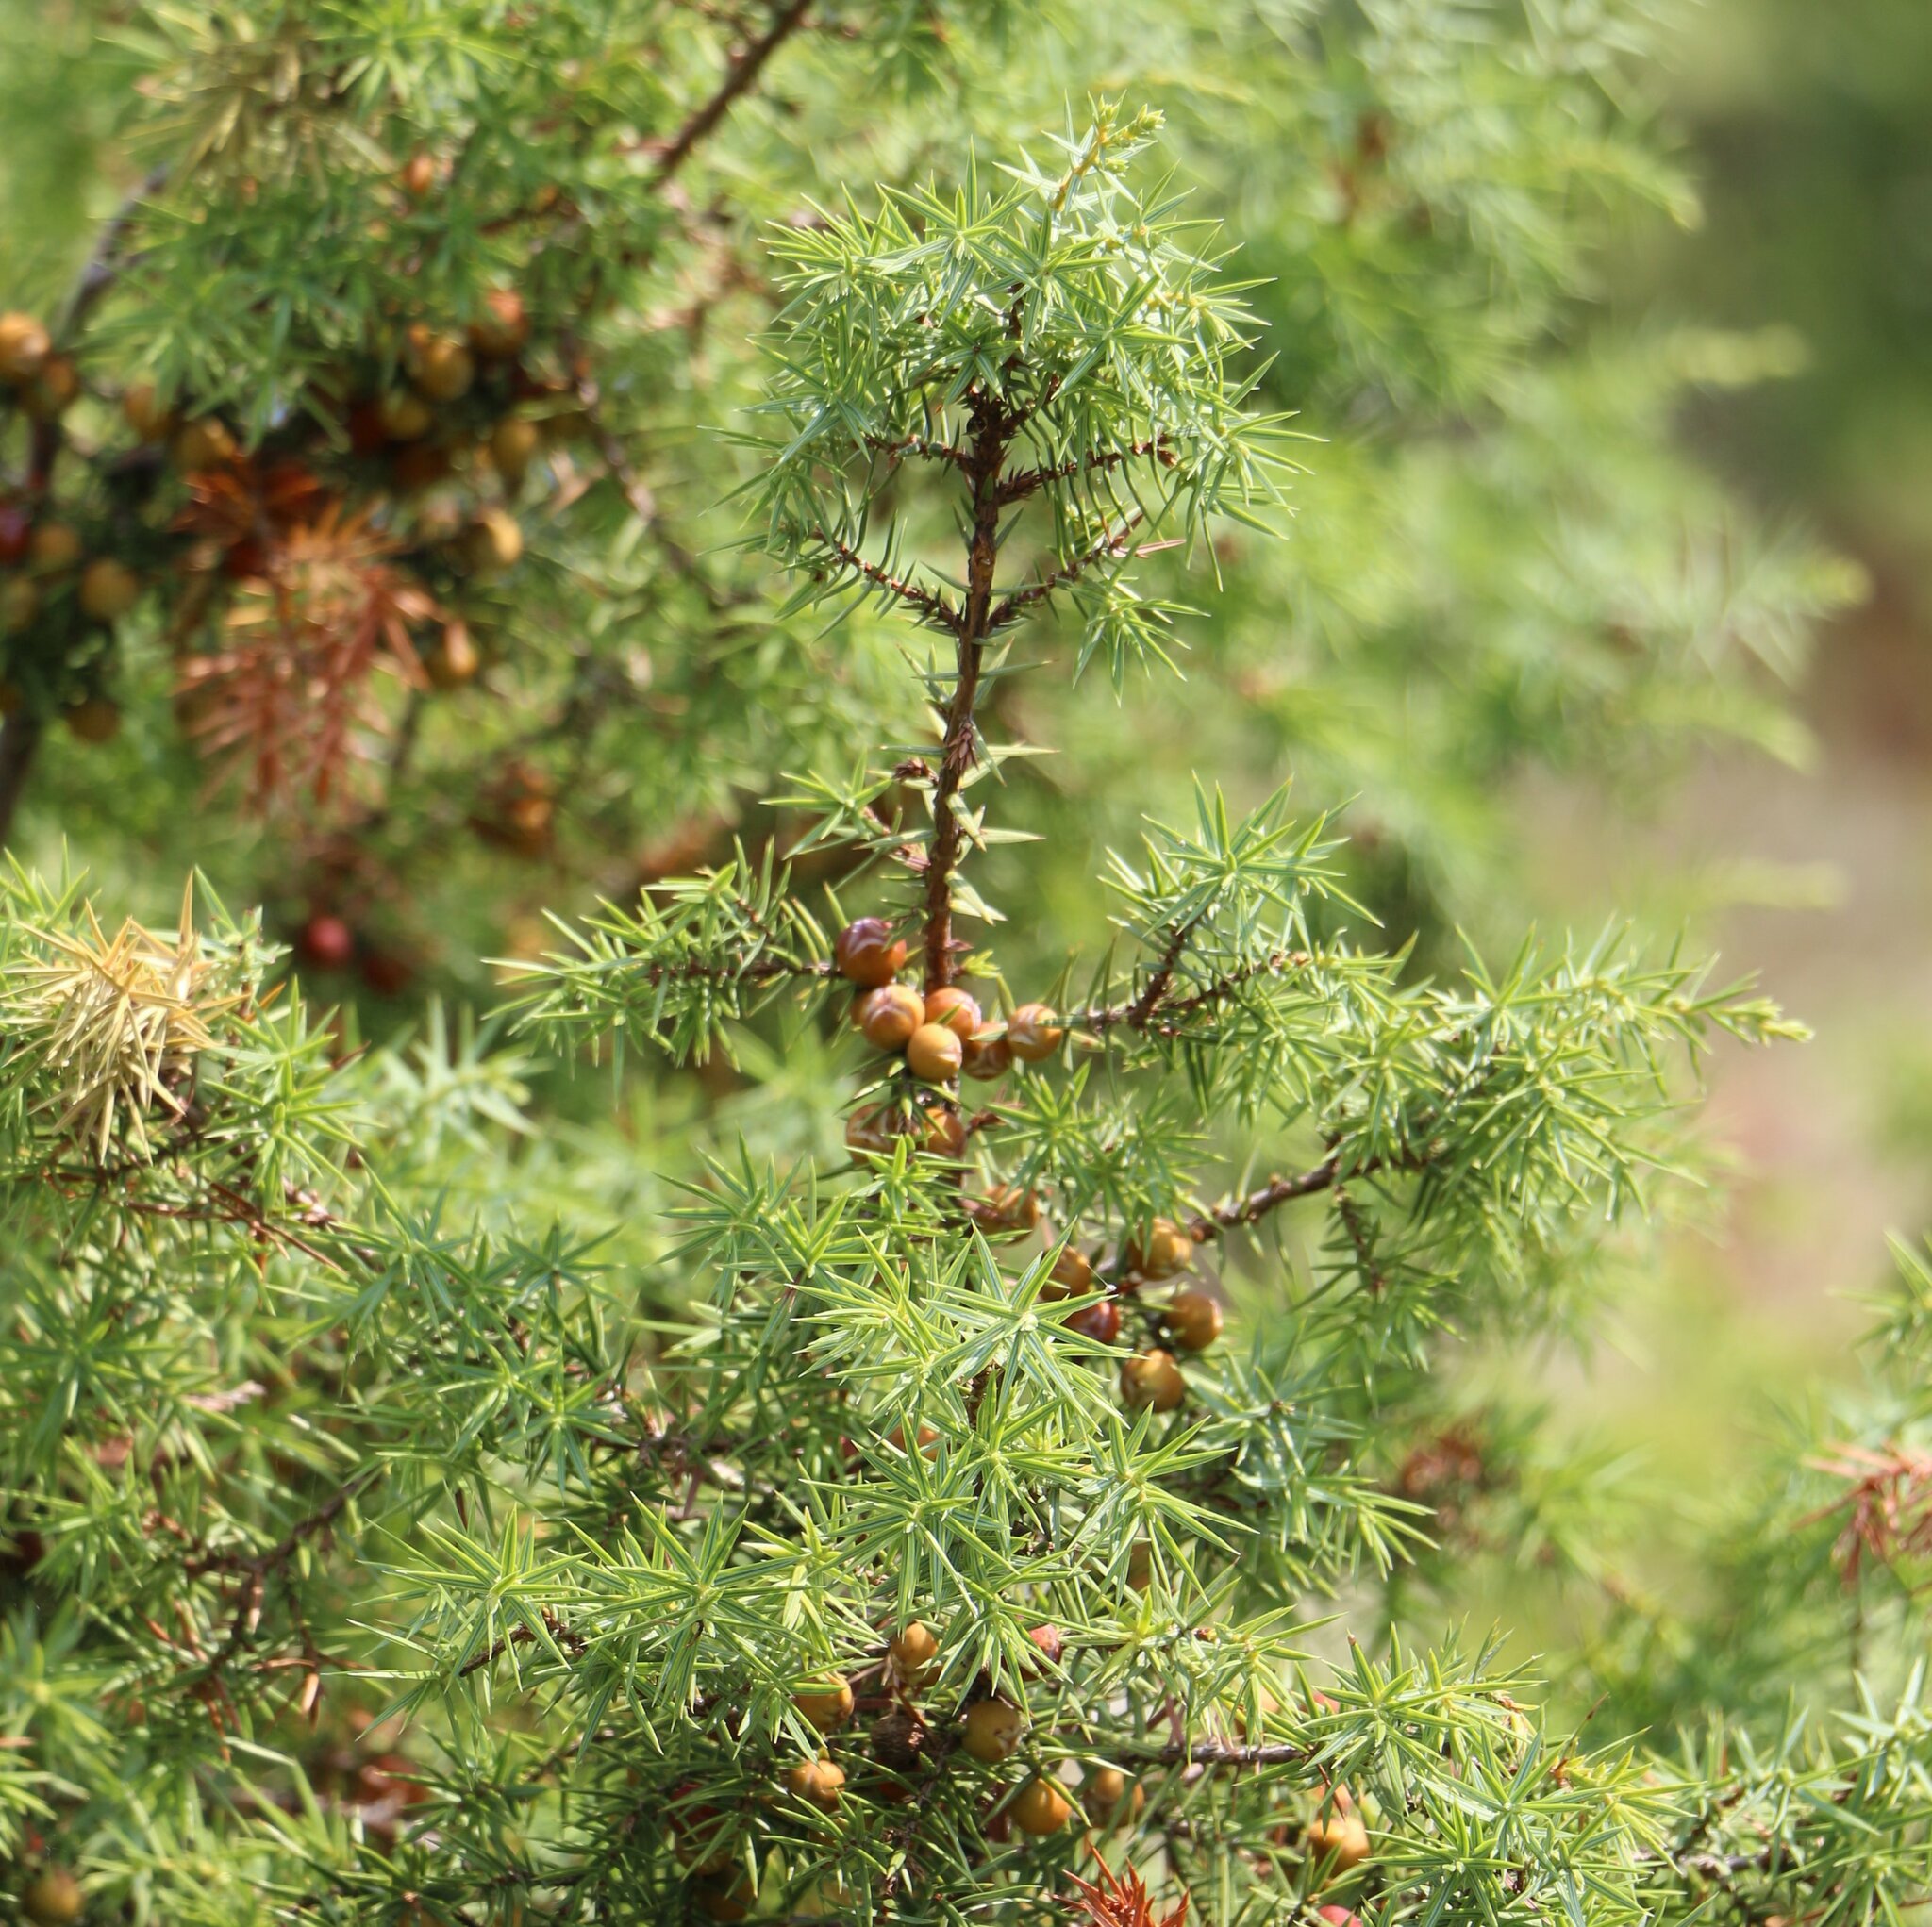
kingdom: Plantae
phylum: Tracheophyta
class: Pinopsida
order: Pinales
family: Cupressaceae
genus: Juniperus
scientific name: Juniperus oxycedrus
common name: Prickly juniper
